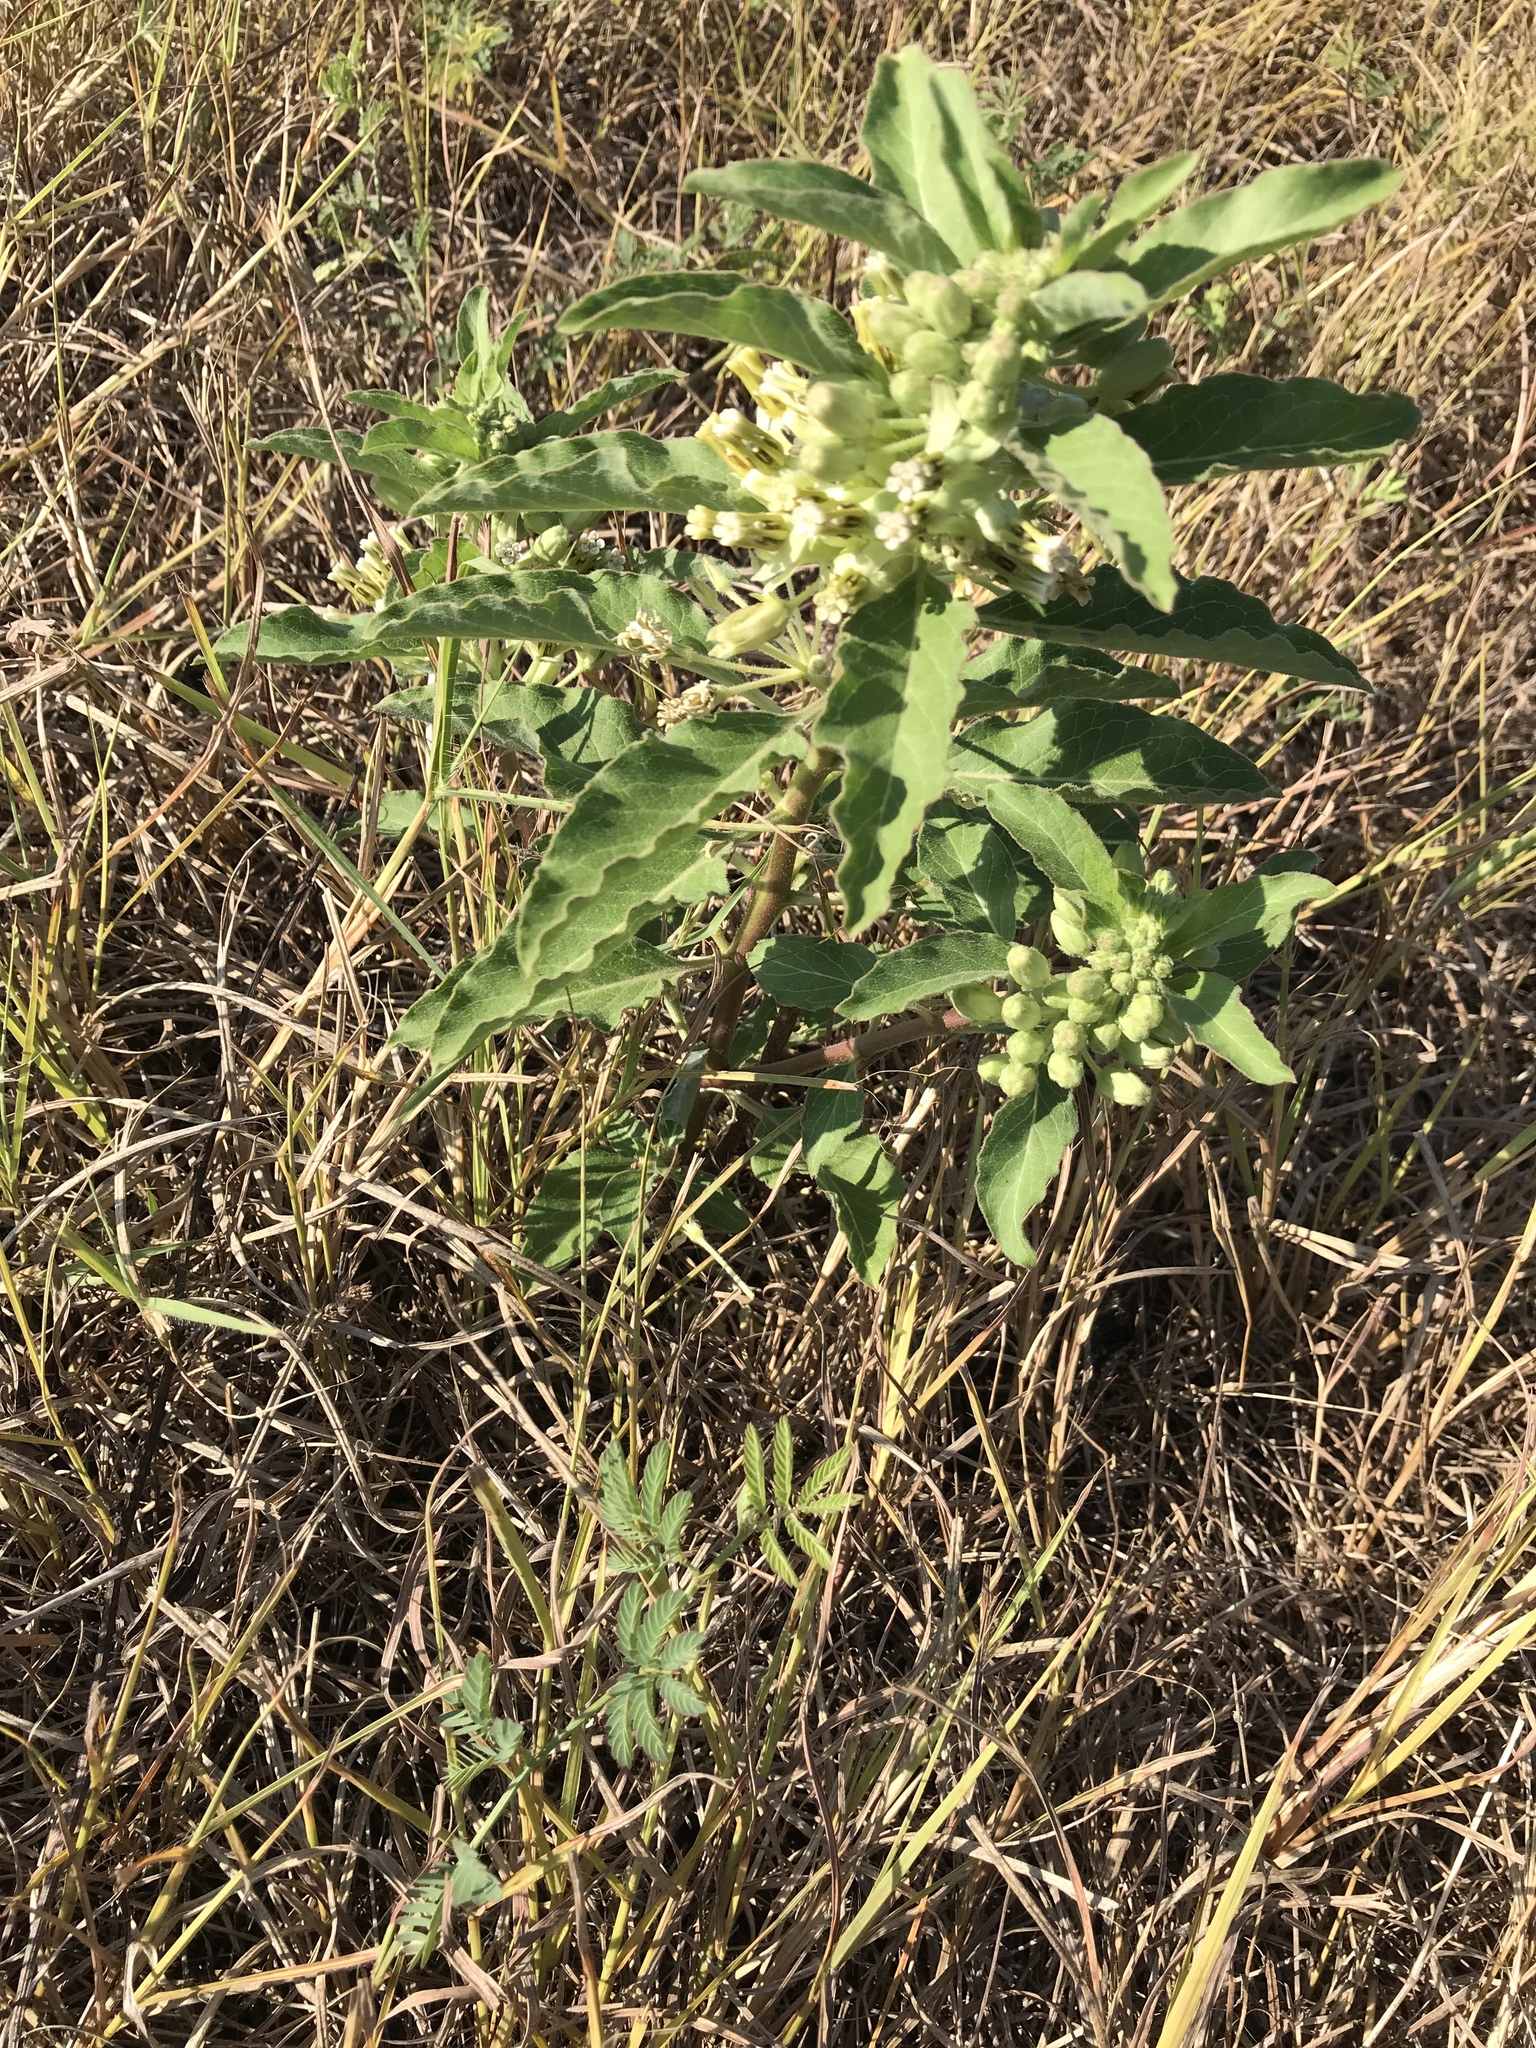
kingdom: Plantae
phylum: Tracheophyta
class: Magnoliopsida
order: Gentianales
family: Apocynaceae
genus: Asclepias
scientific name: Asclepias oenotheroides
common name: Zizotes milkweed
